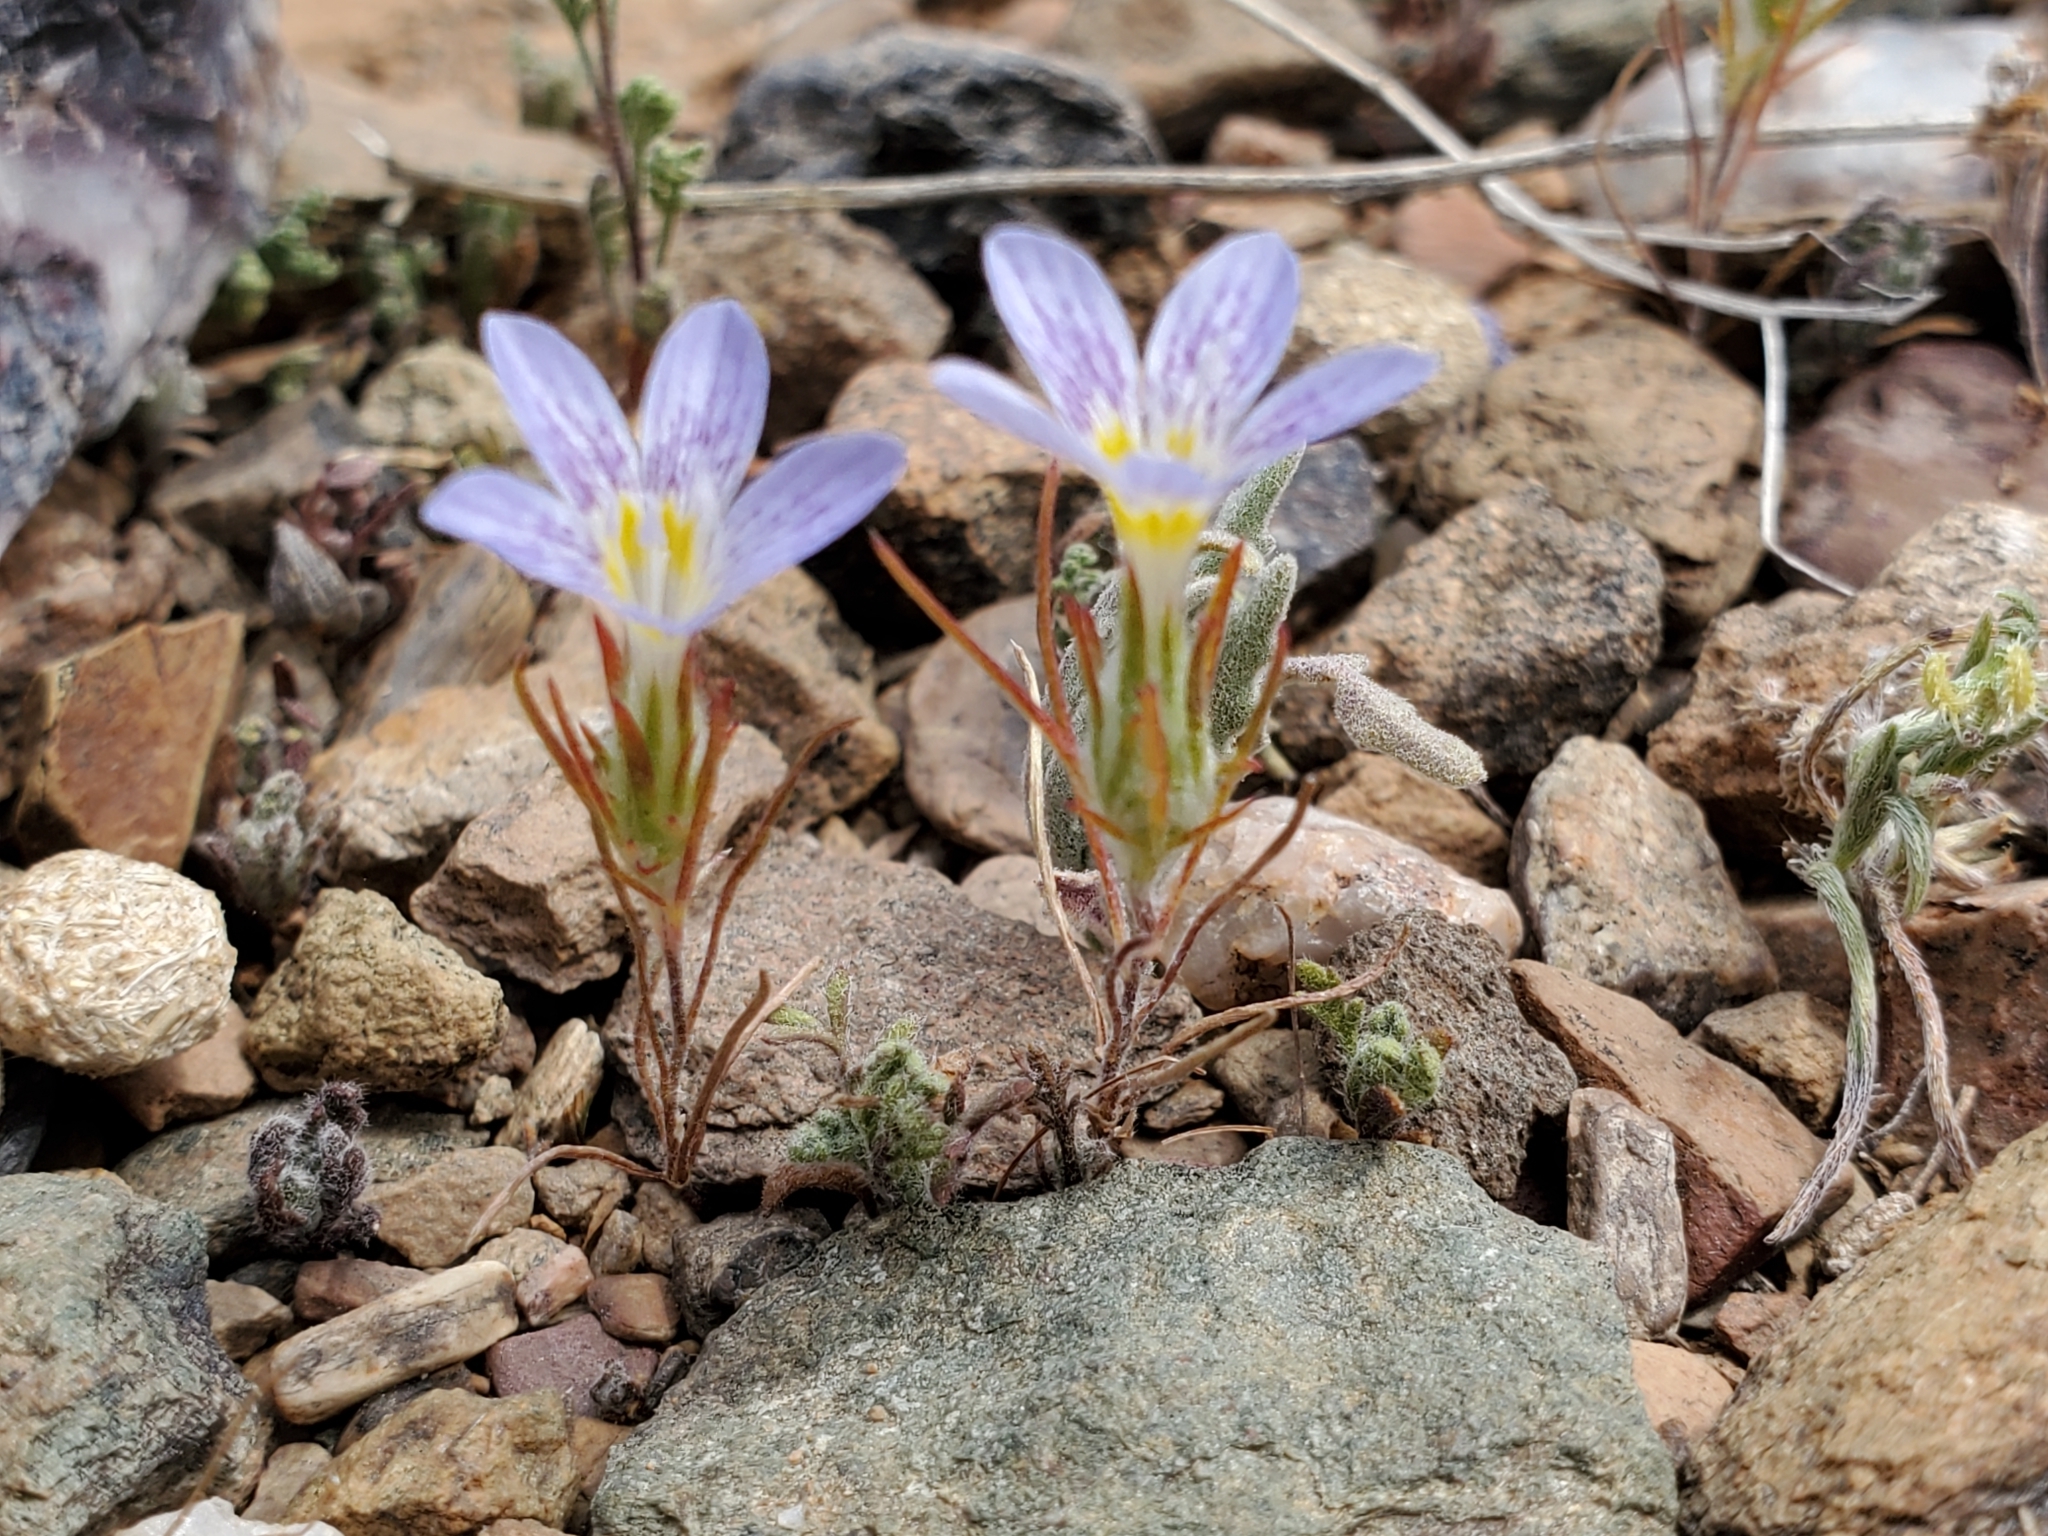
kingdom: Plantae
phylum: Tracheophyta
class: Magnoliopsida
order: Ericales
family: Polemoniaceae
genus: Eriastrum
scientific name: Eriastrum eremicum
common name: Desert eriastrum
